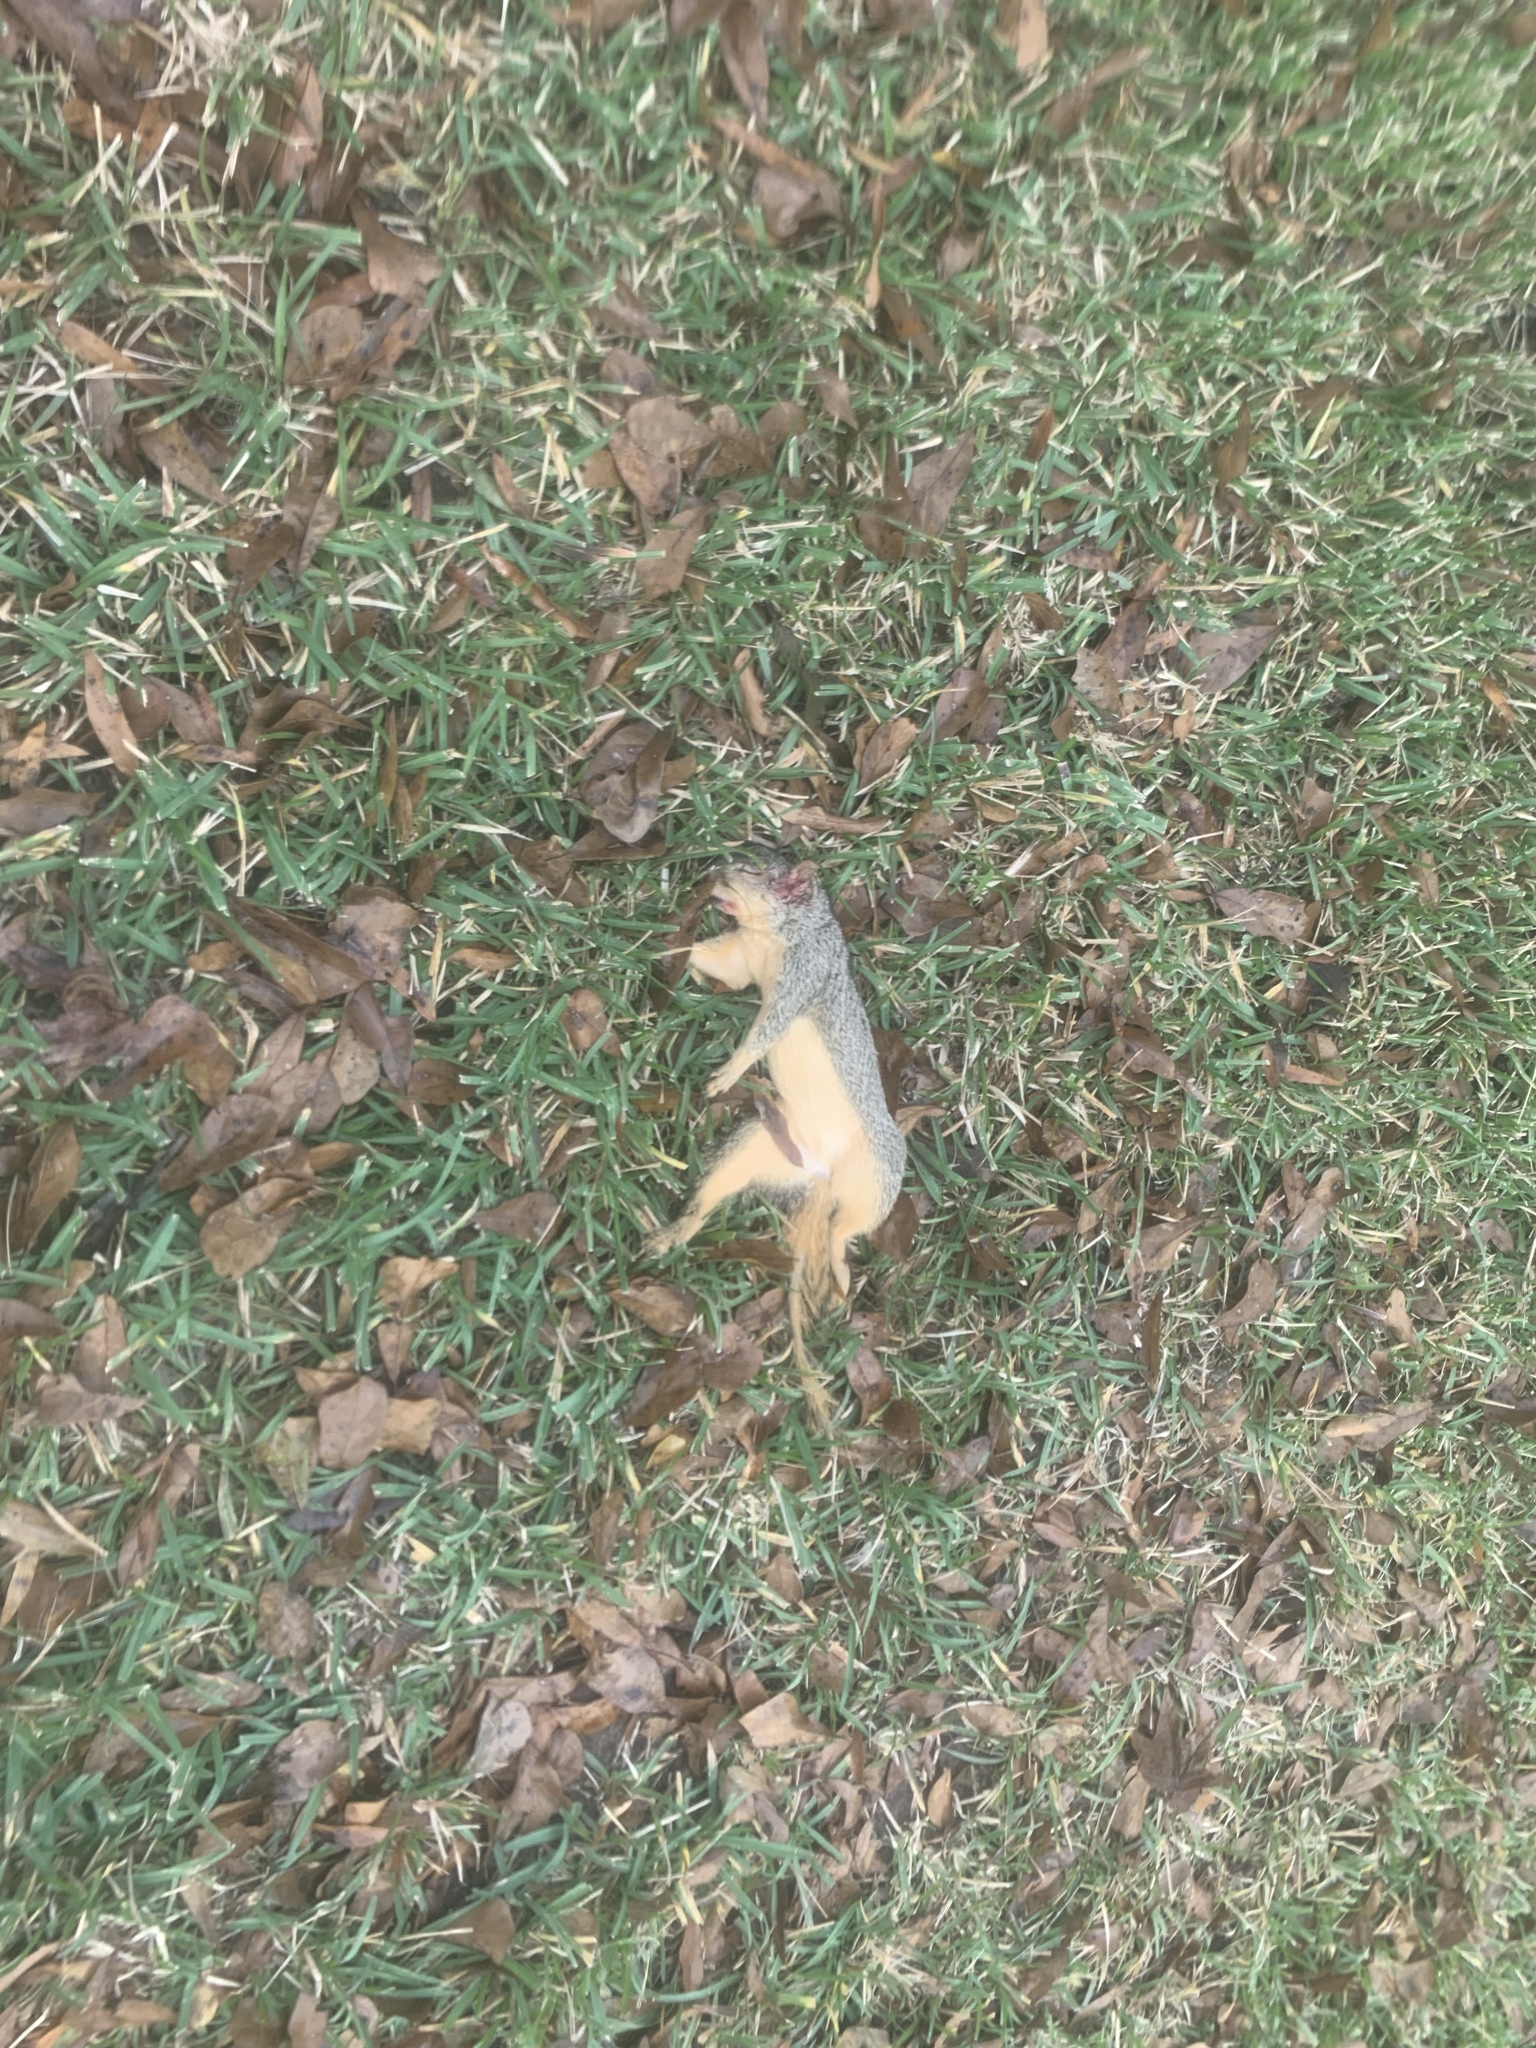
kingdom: Animalia
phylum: Chordata
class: Mammalia
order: Rodentia
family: Sciuridae
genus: Sciurus
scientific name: Sciurus niger
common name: Fox squirrel
